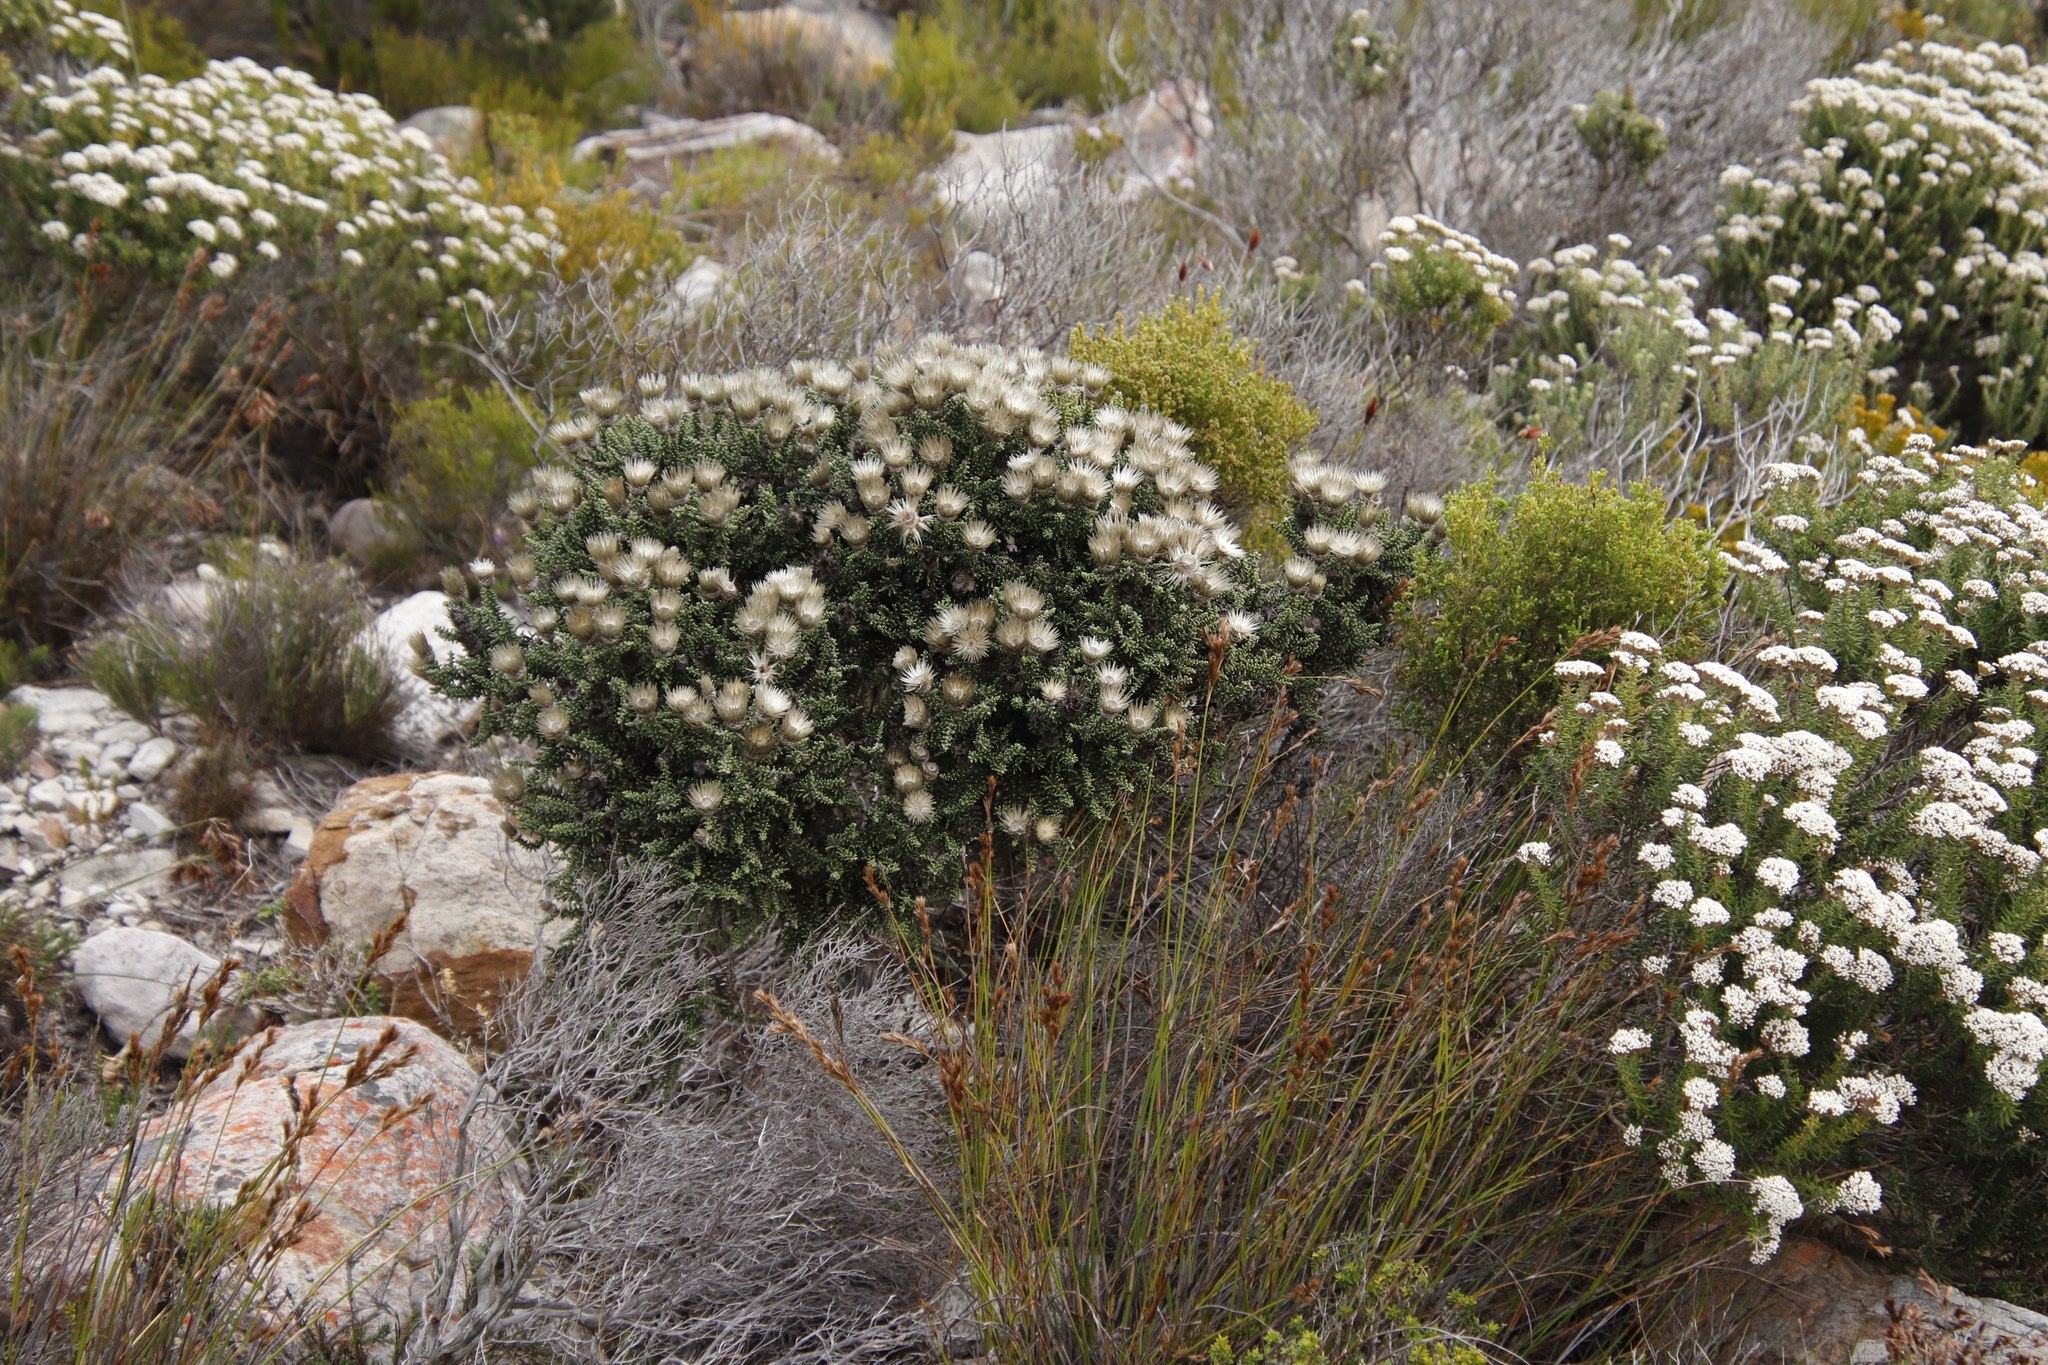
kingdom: Plantae
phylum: Tracheophyta
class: Magnoliopsida
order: Asterales
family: Asteraceae
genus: Phaenocoma
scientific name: Phaenocoma prolifera
